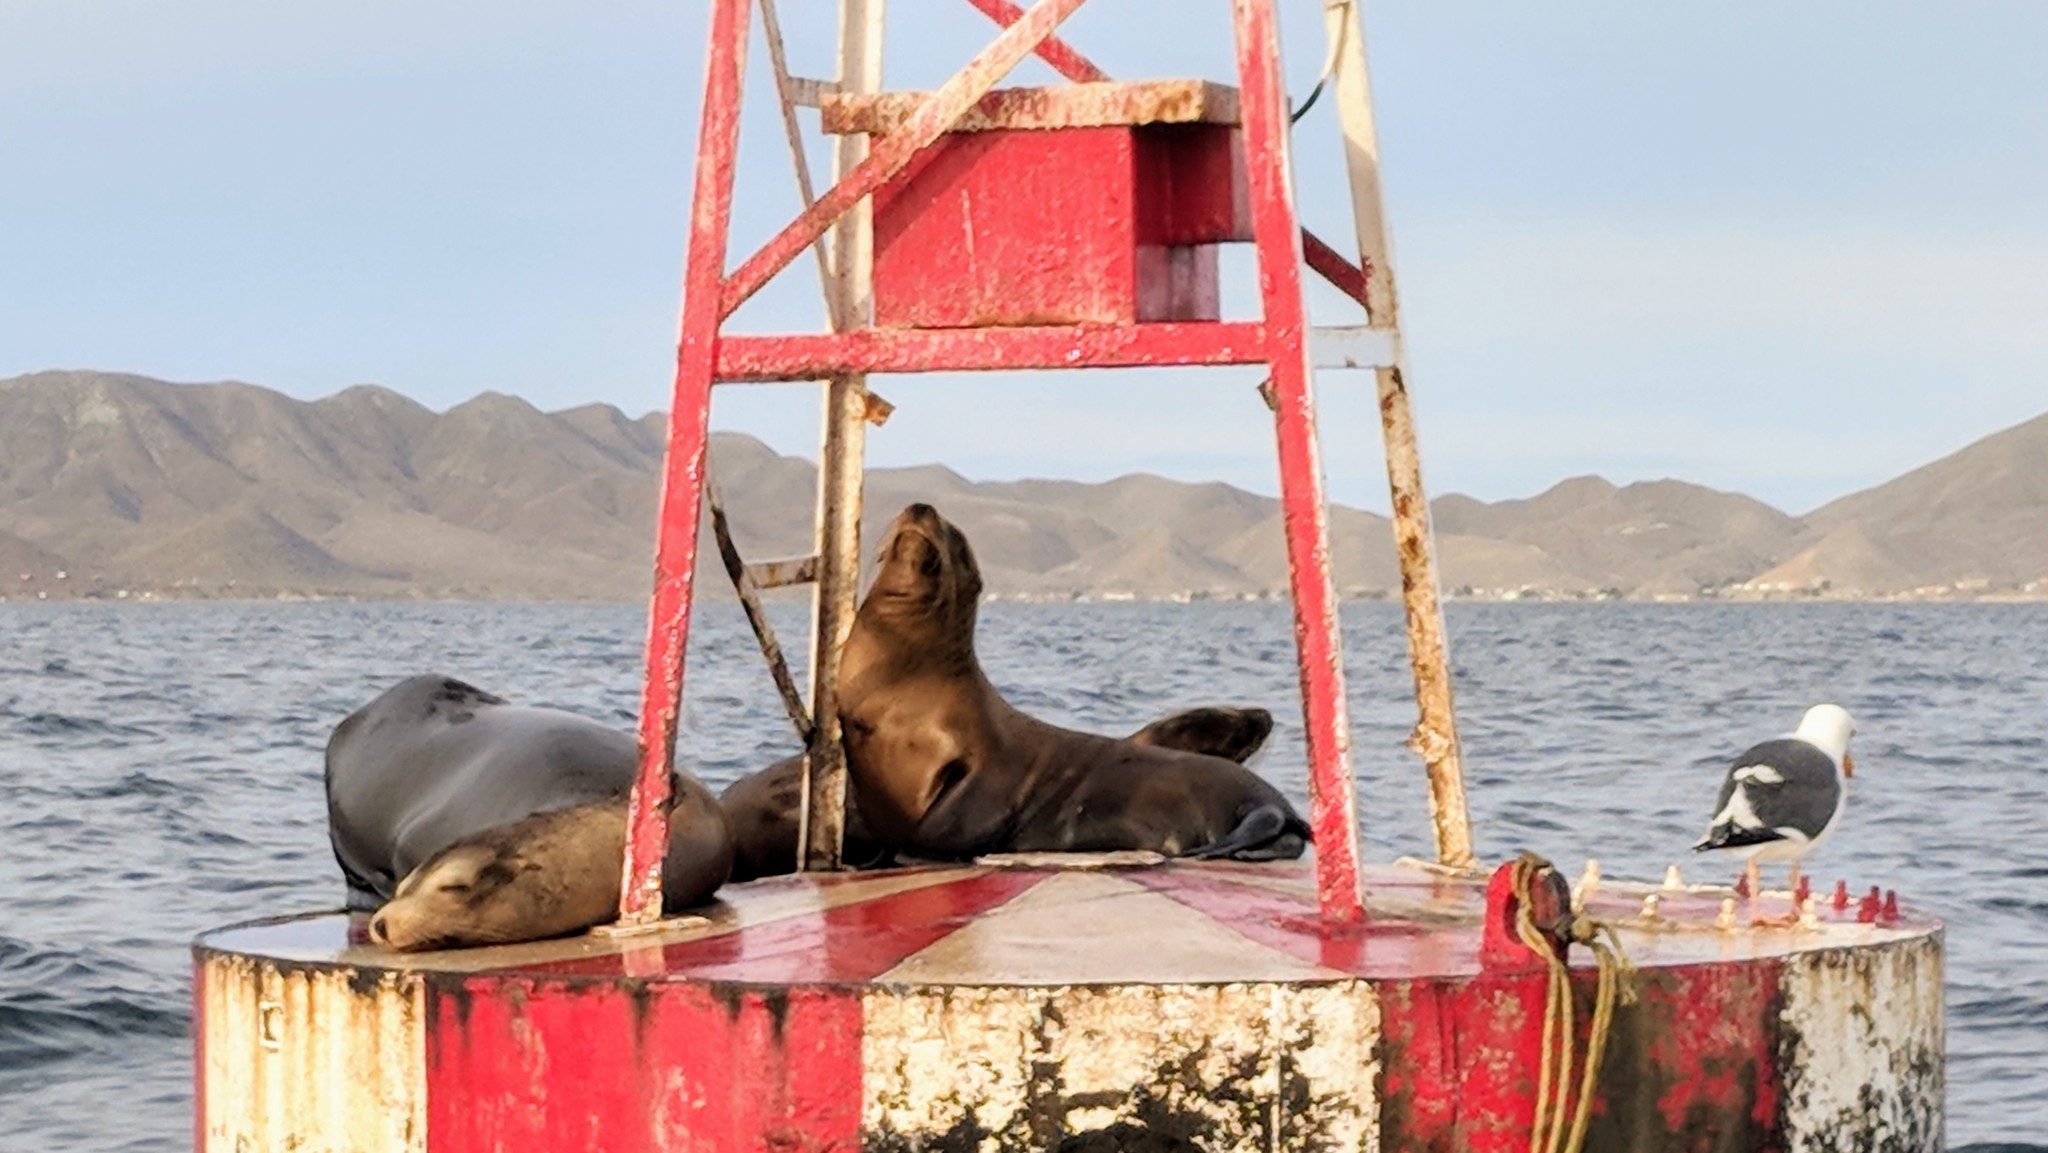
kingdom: Animalia
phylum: Chordata
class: Mammalia
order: Carnivora
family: Otariidae
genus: Zalophus
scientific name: Zalophus californianus
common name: California sea lion
